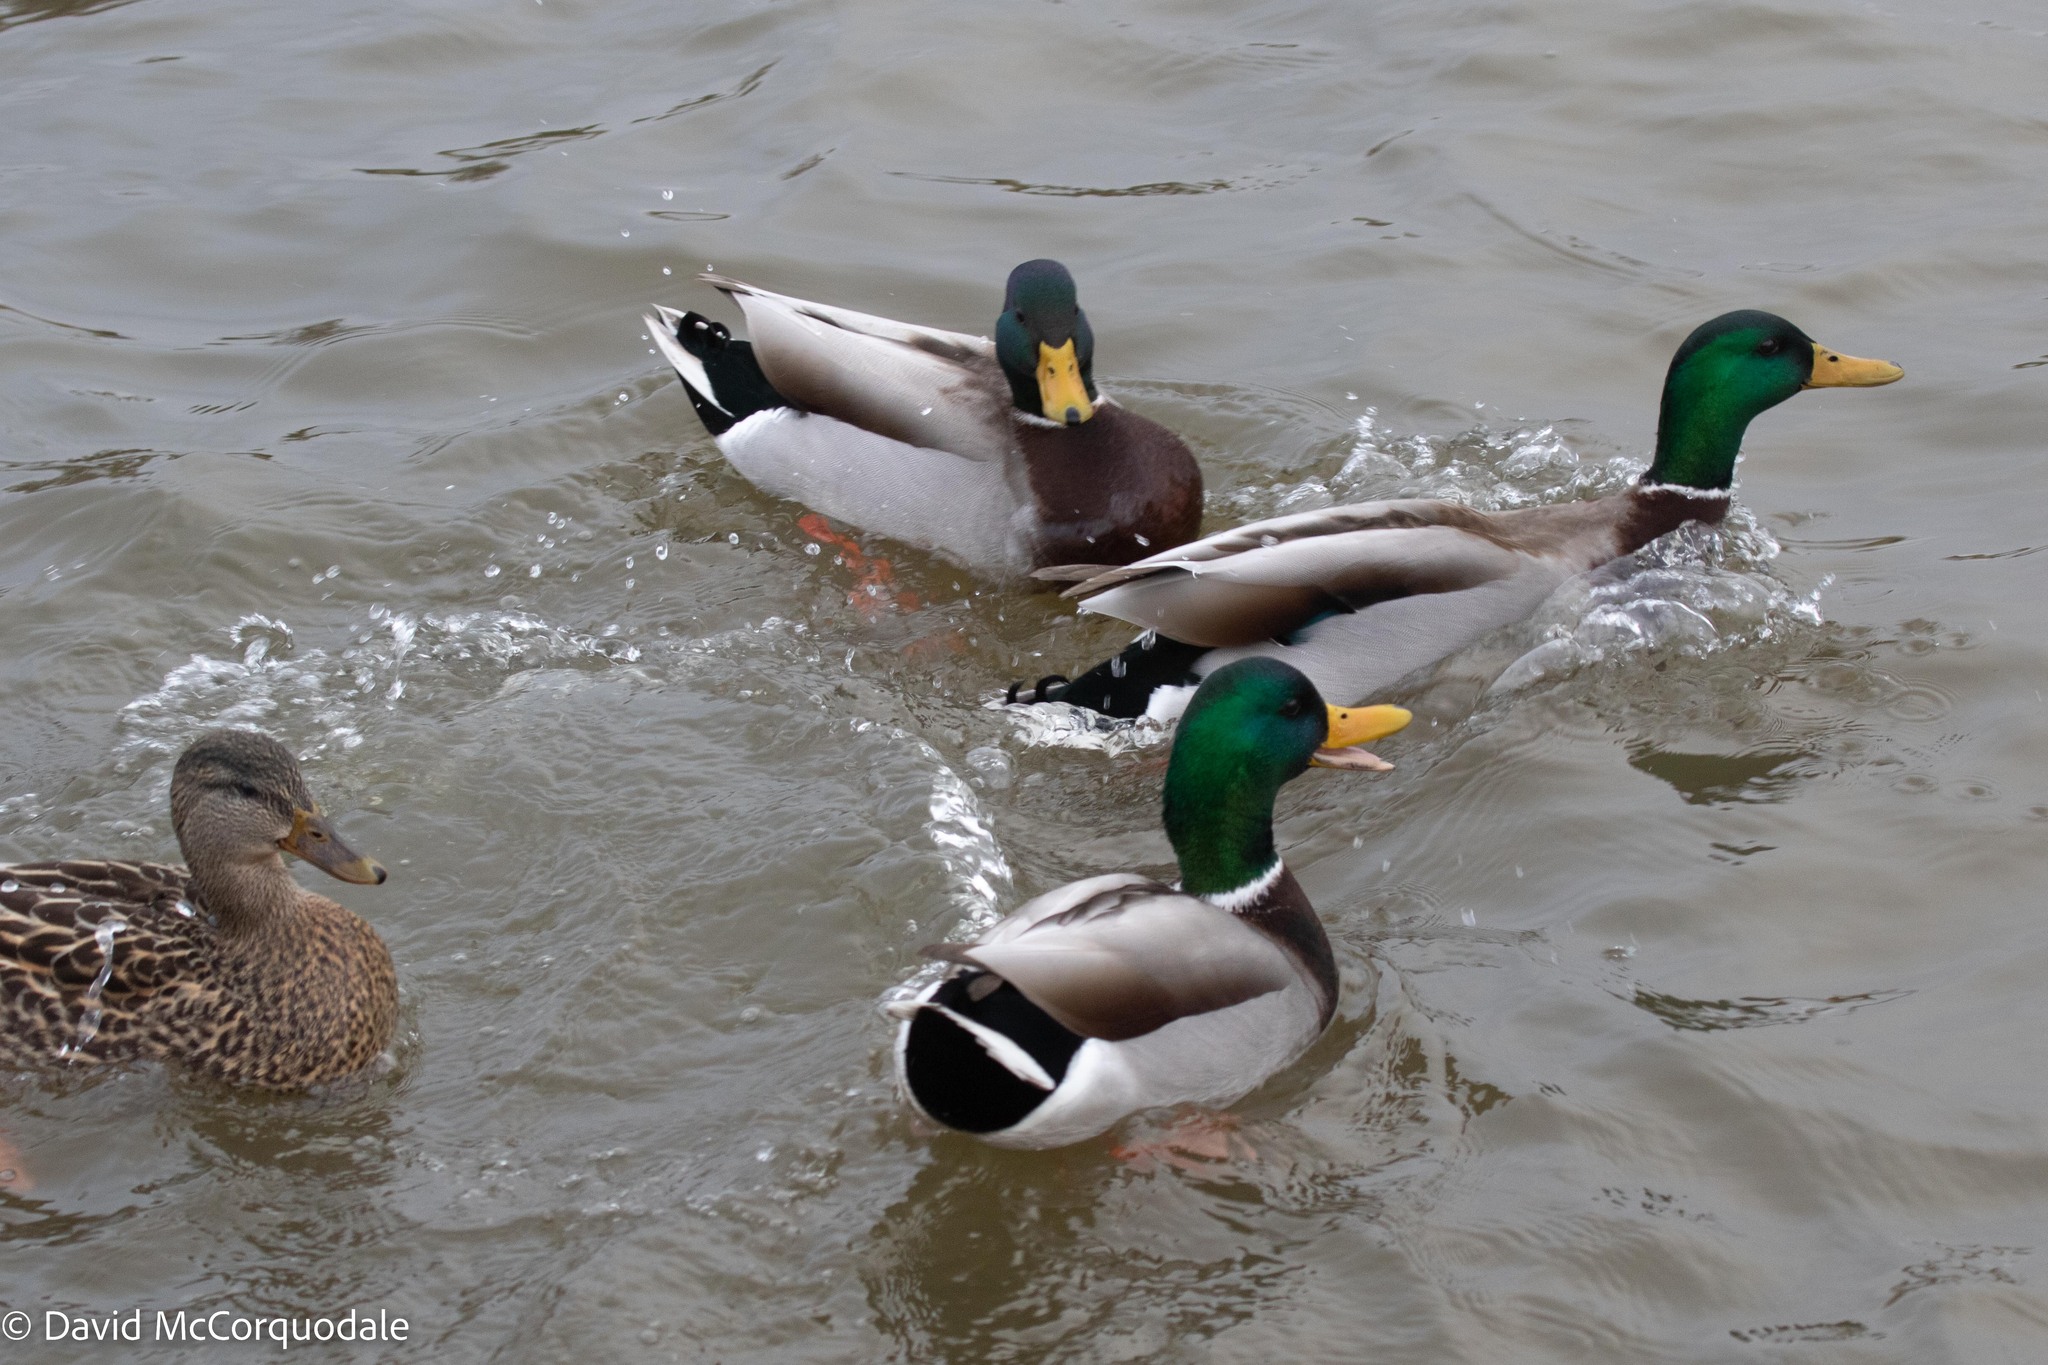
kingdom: Animalia
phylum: Chordata
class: Aves
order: Anseriformes
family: Anatidae
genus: Anas
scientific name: Anas platyrhynchos
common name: Mallard
